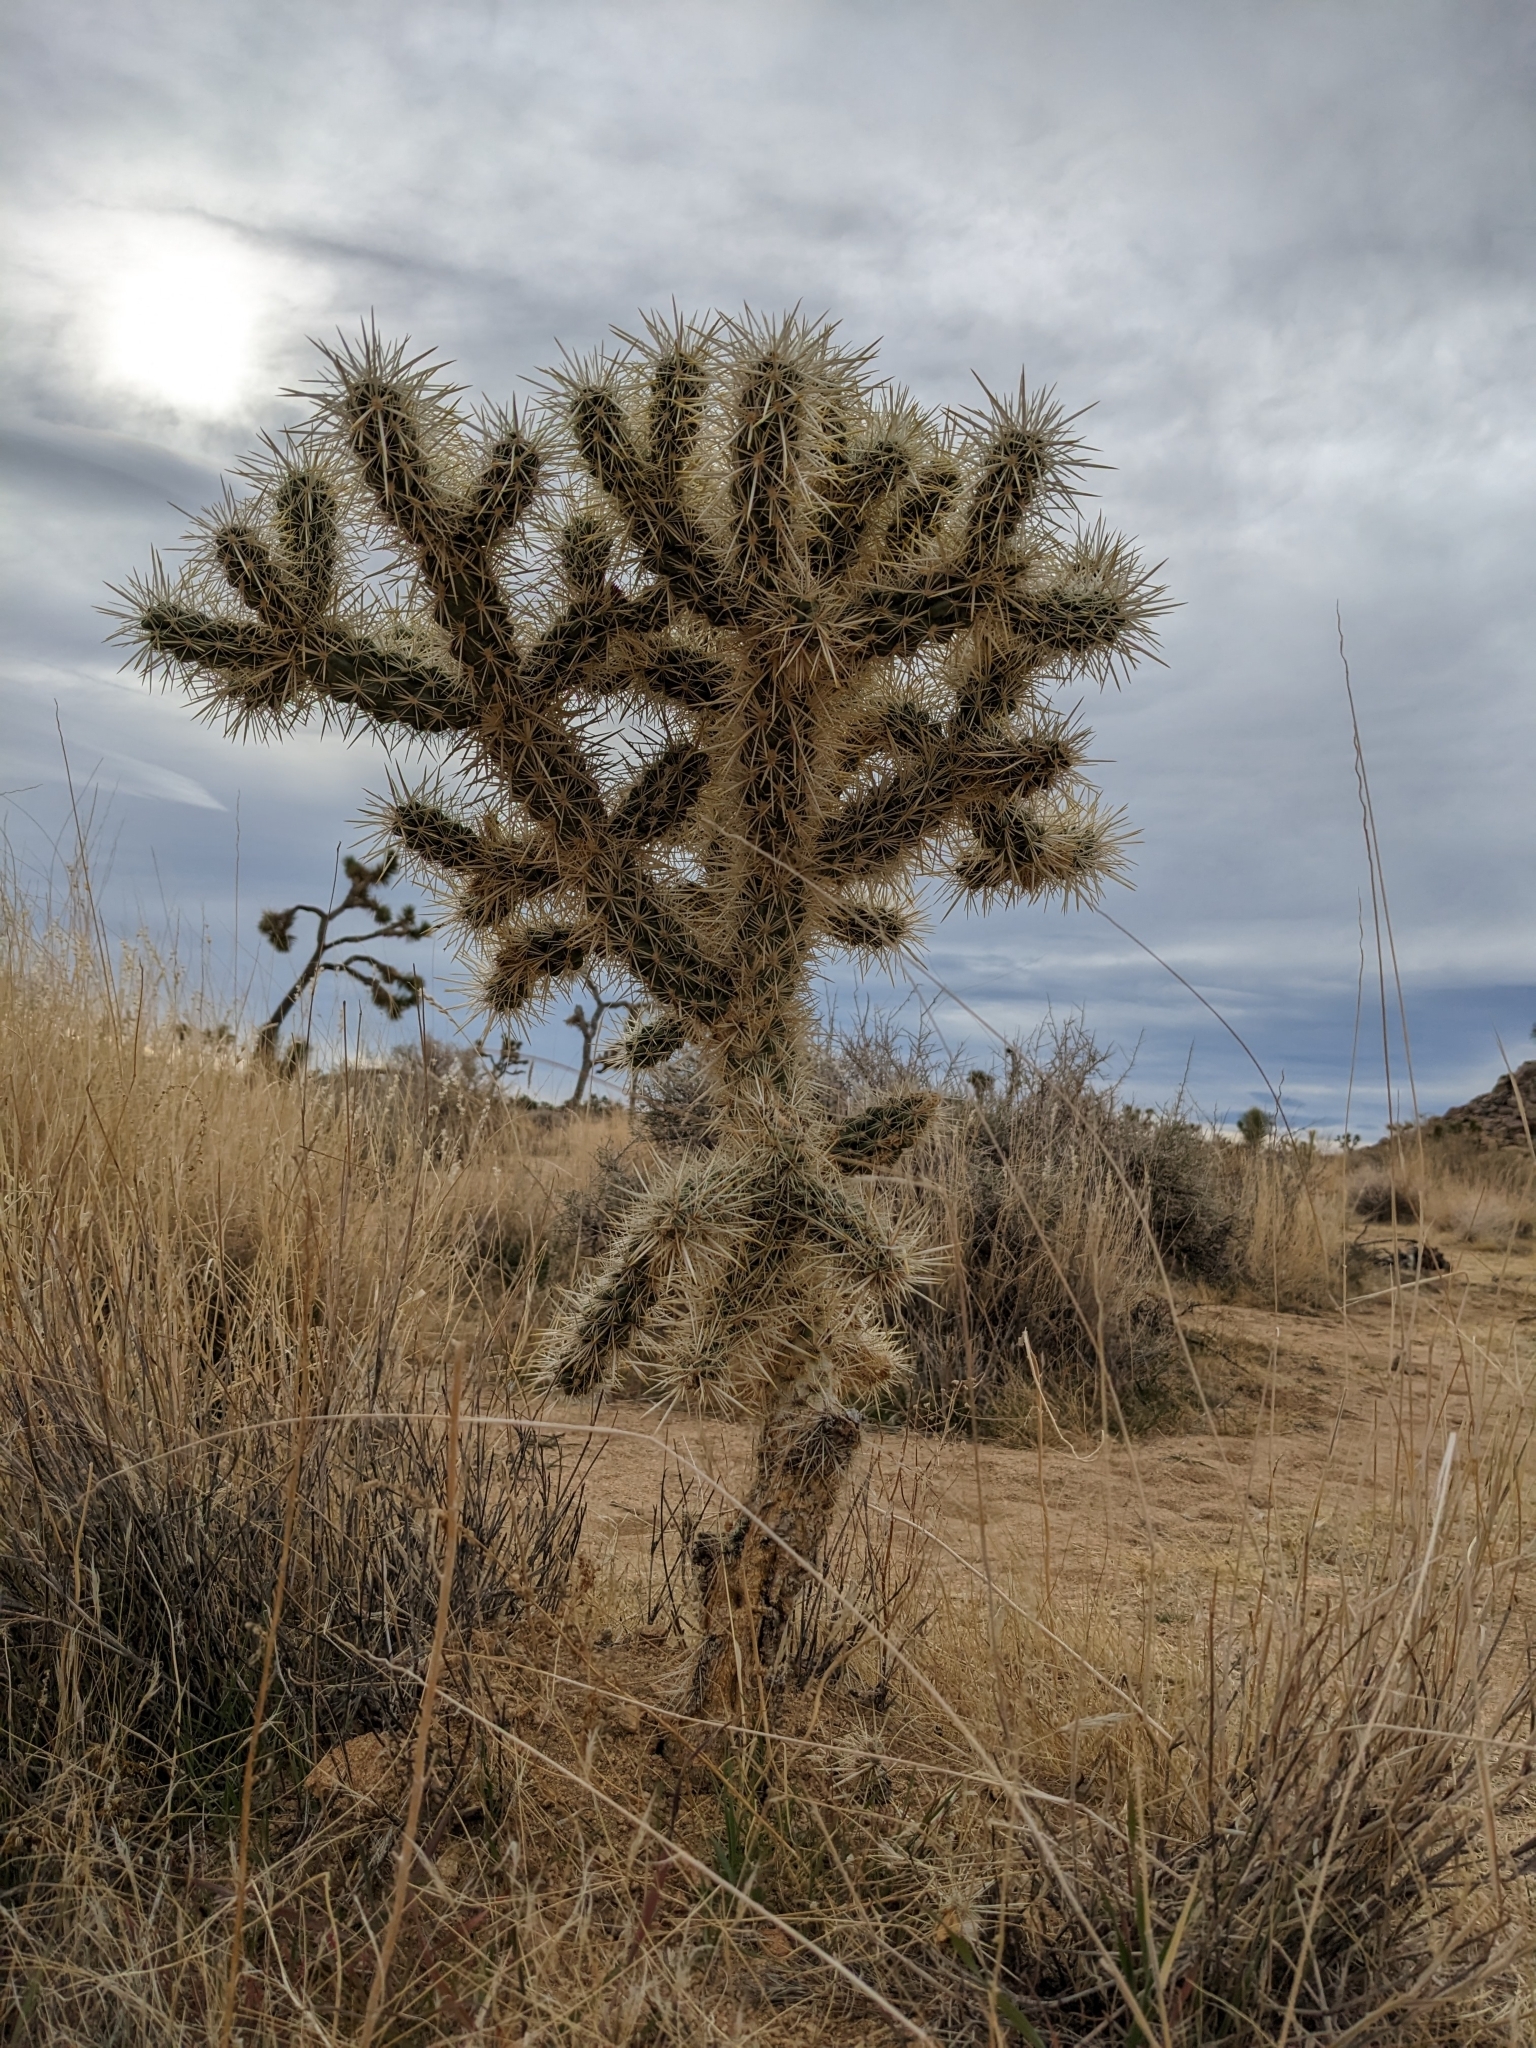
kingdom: Plantae
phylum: Tracheophyta
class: Magnoliopsida
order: Caryophyllales
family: Cactaceae
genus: Cylindropuntia
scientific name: Cylindropuntia echinocarpa
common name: Ground cholla
